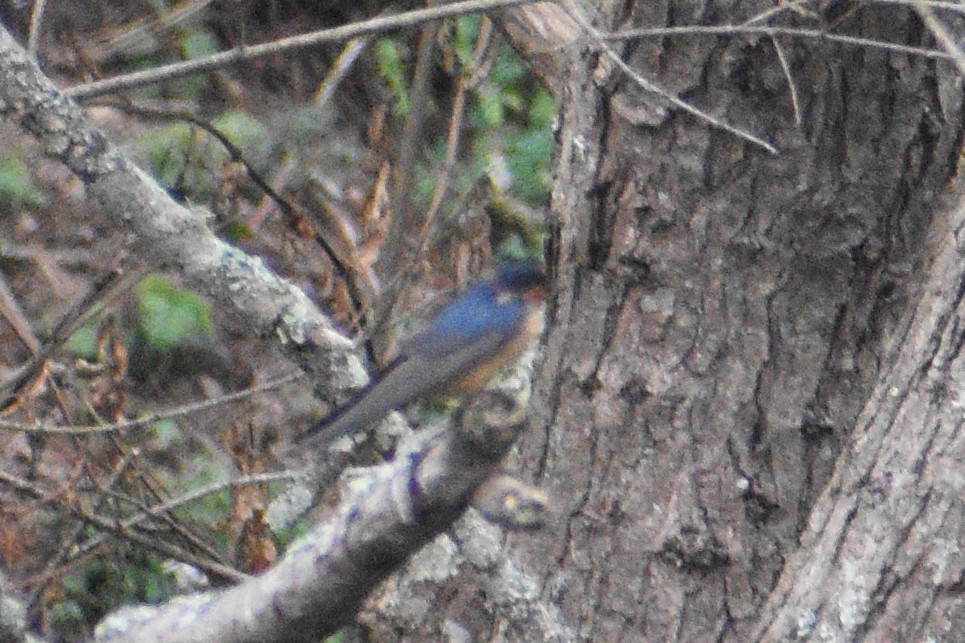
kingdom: Animalia
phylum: Chordata
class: Aves
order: Passeriformes
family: Hirundinidae
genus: Hirundo
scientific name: Hirundo rustica
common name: Barn swallow
